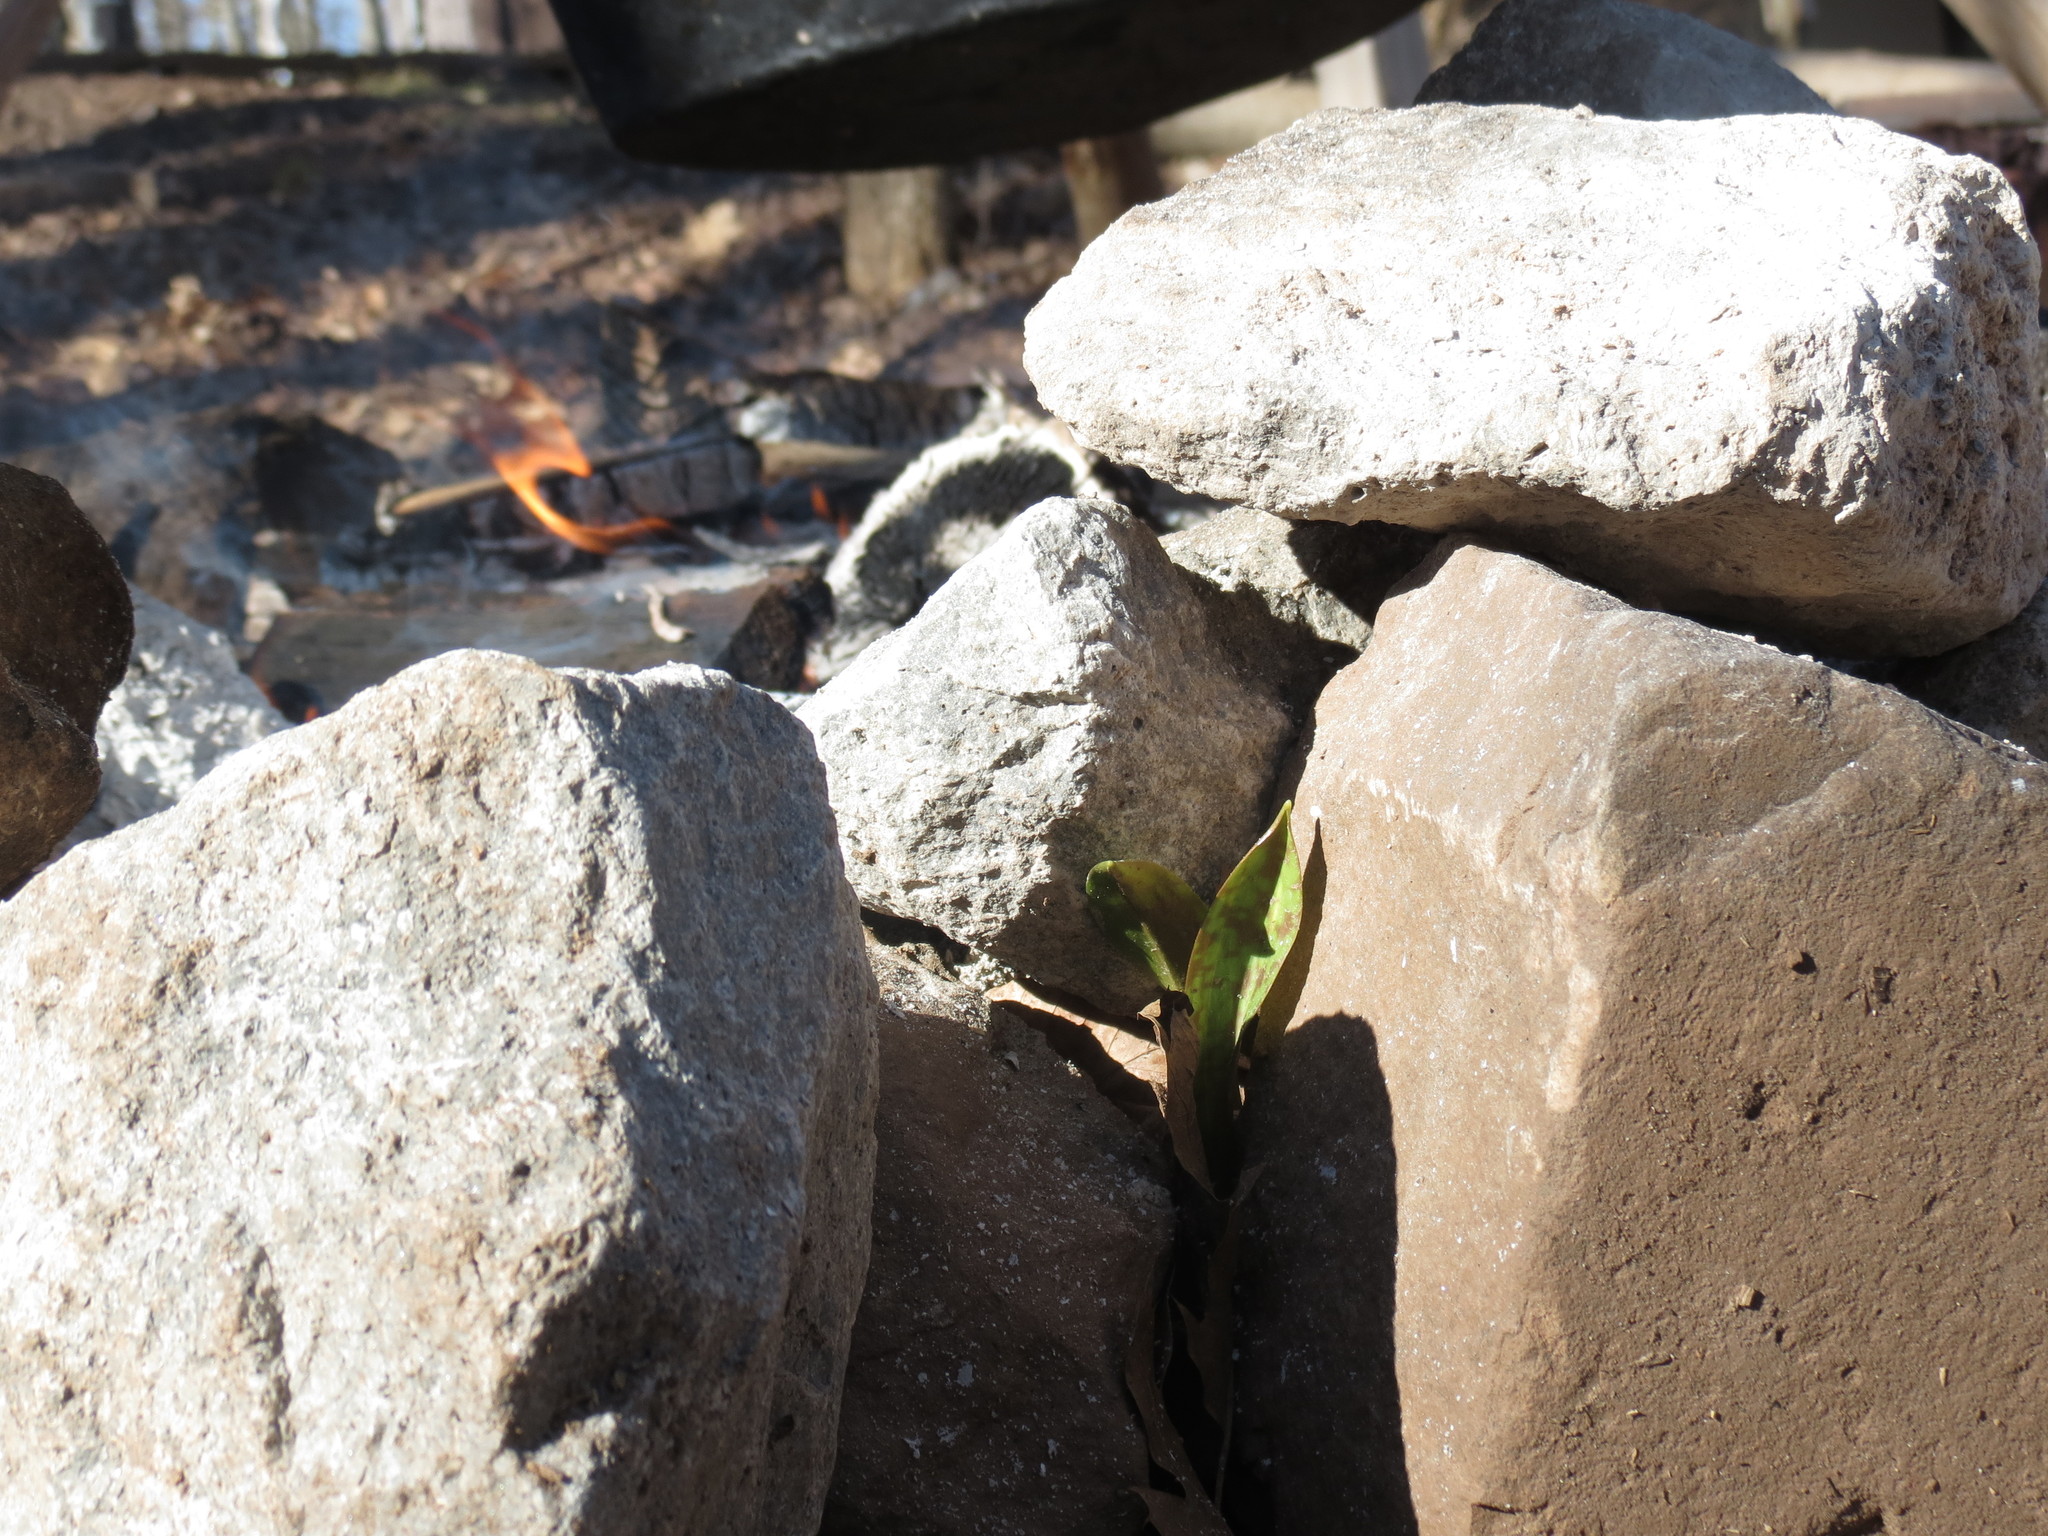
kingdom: Plantae
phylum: Tracheophyta
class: Liliopsida
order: Liliales
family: Liliaceae
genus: Erythronium
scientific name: Erythronium americanum
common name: Yellow adder's-tongue
